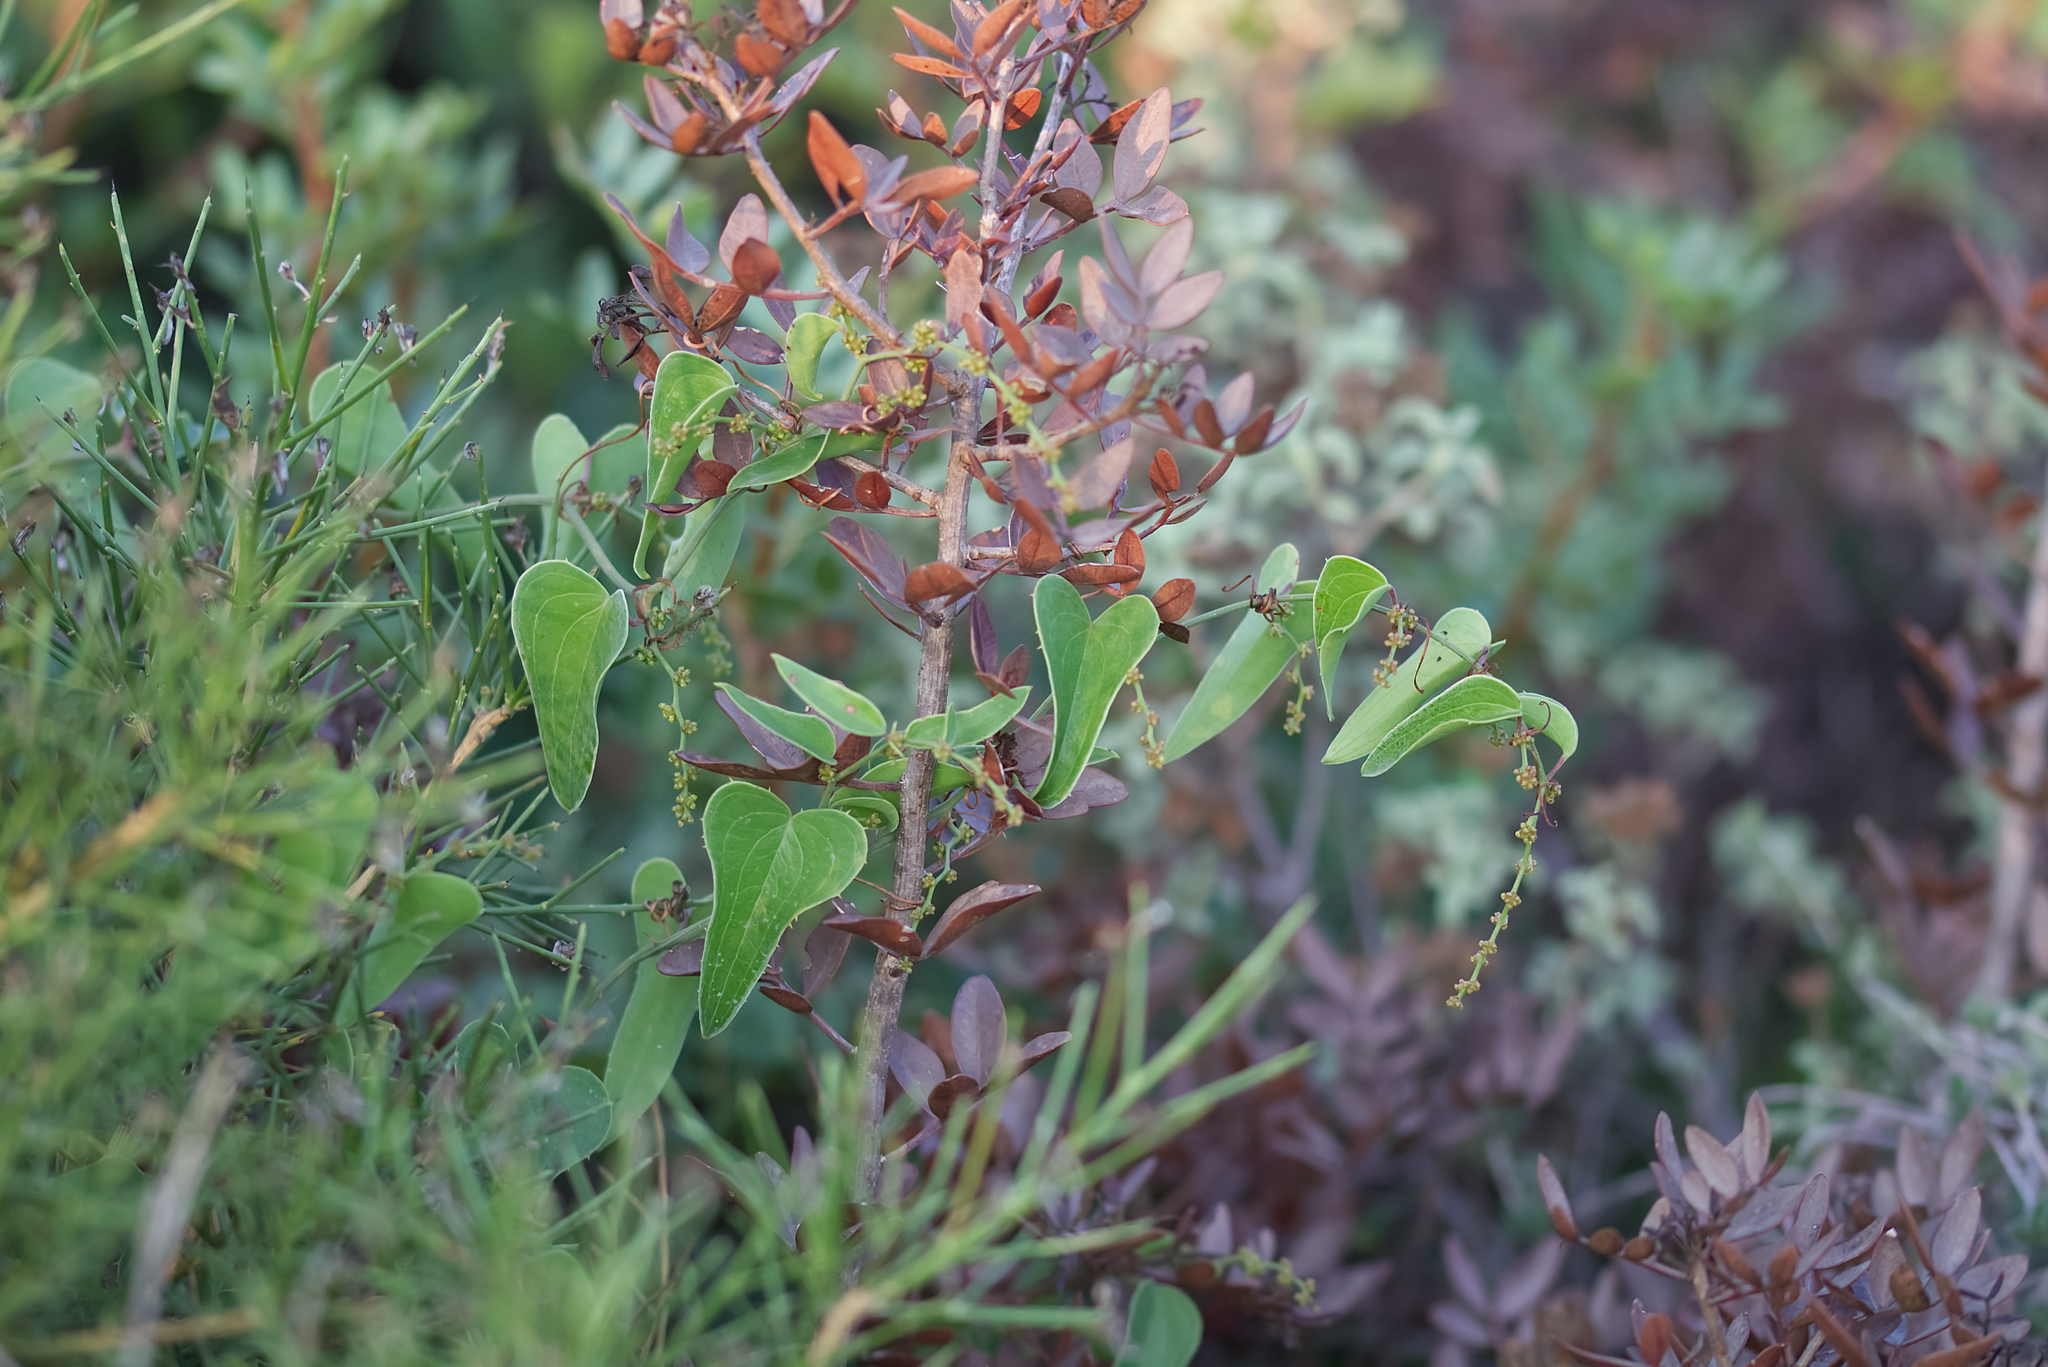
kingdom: Plantae
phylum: Tracheophyta
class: Liliopsida
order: Liliales
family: Smilacaceae
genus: Smilax
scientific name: Smilax aspera
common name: Common smilax
